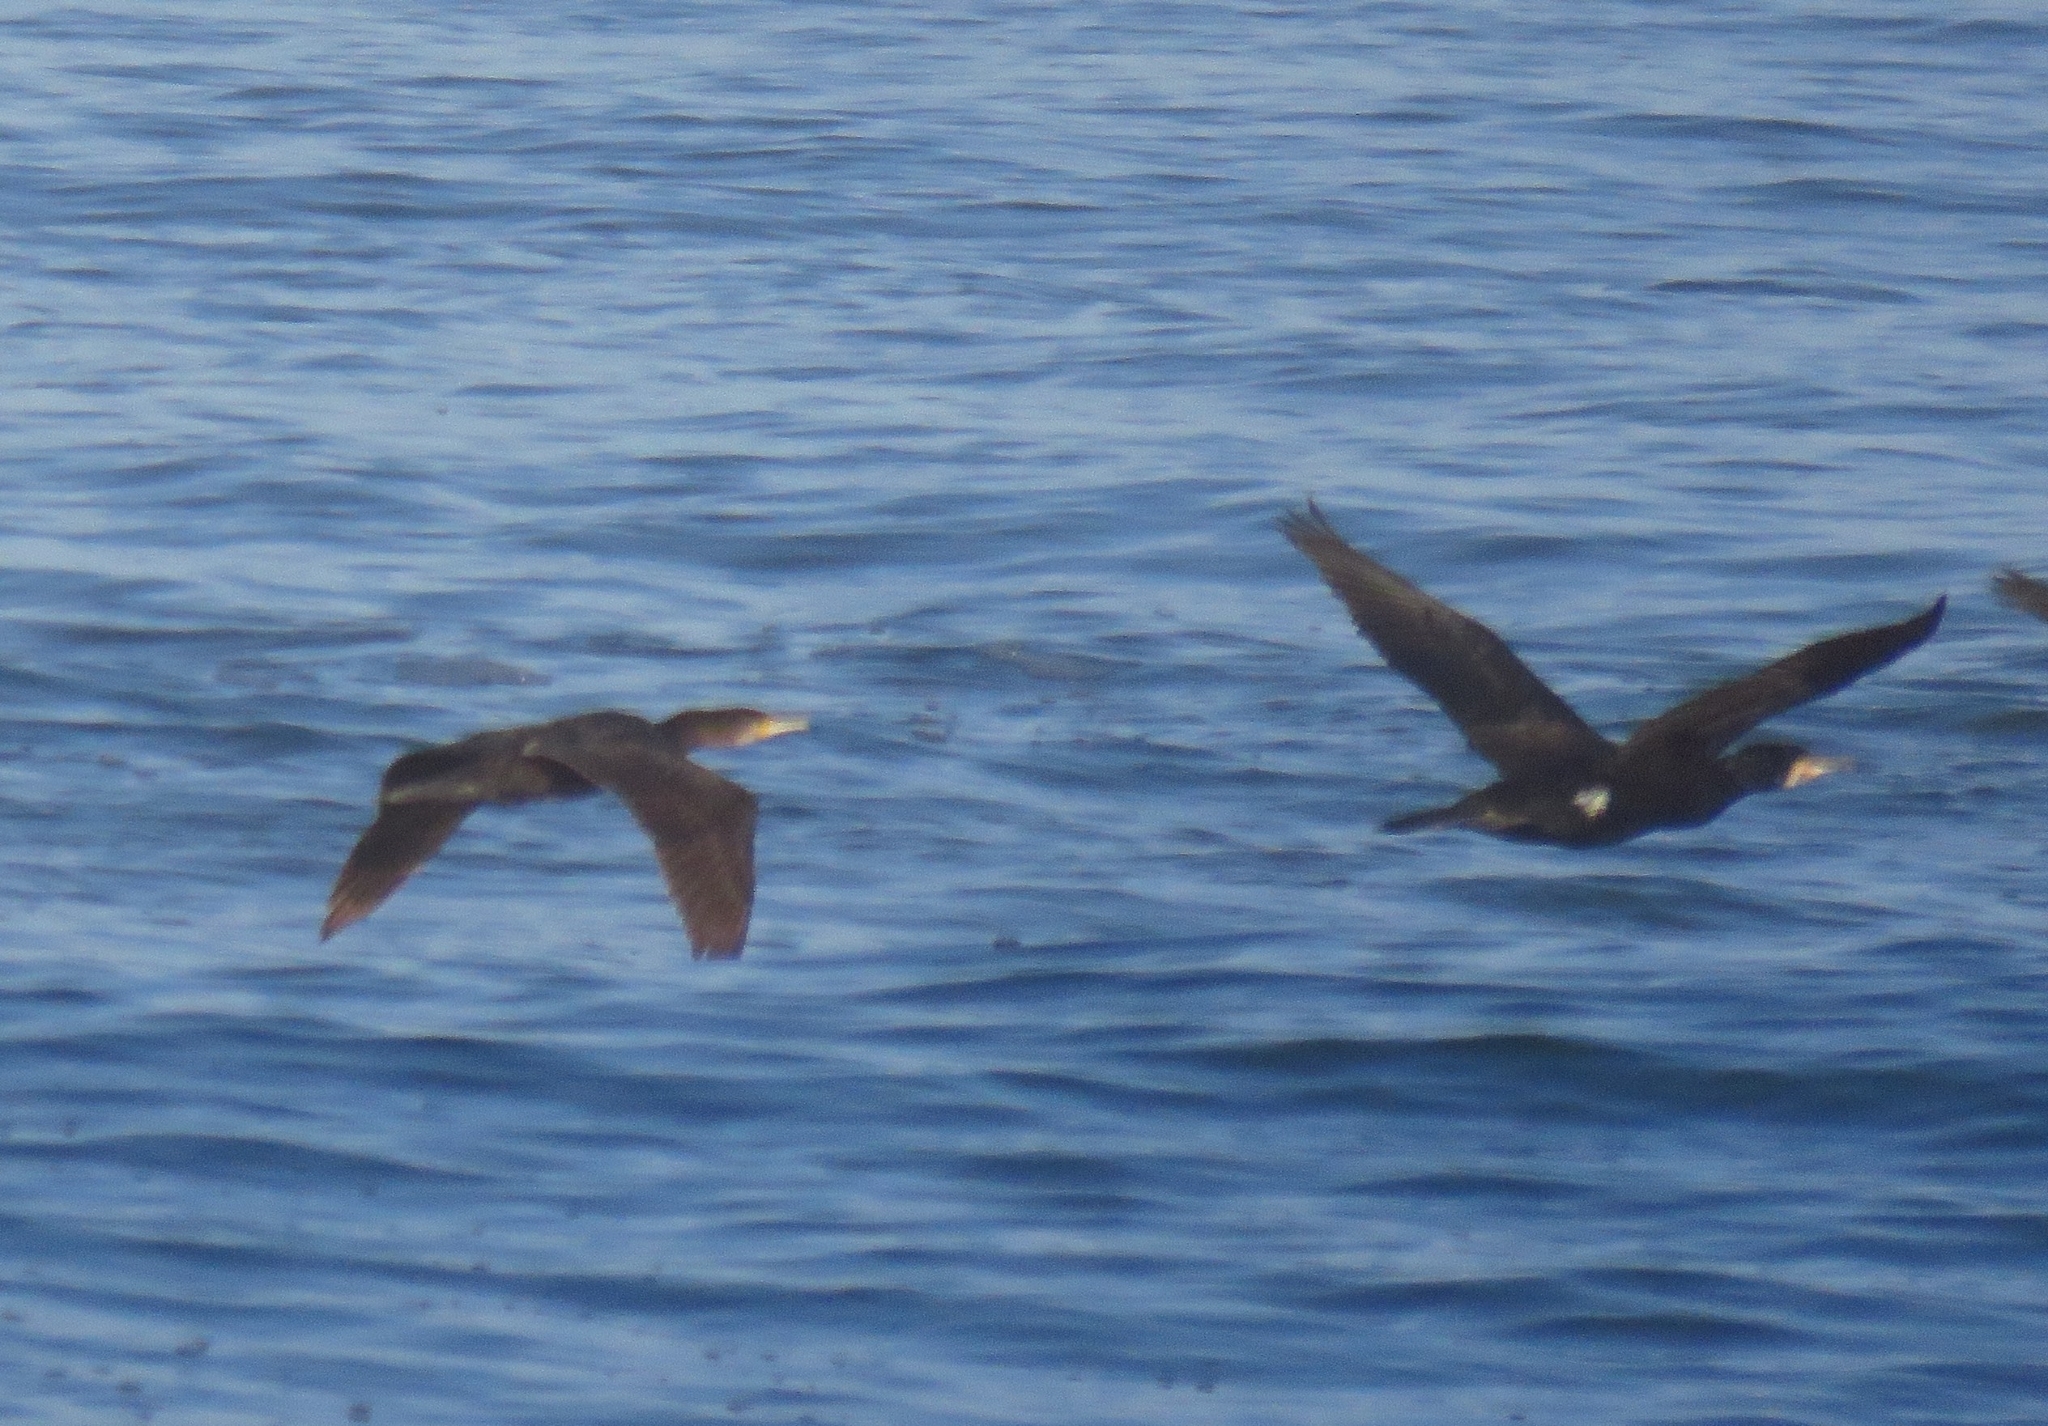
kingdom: Animalia
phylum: Chordata
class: Aves
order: Suliformes
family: Phalacrocoracidae
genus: Phalacrocorax
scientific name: Phalacrocorax carbo
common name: Great cormorant
